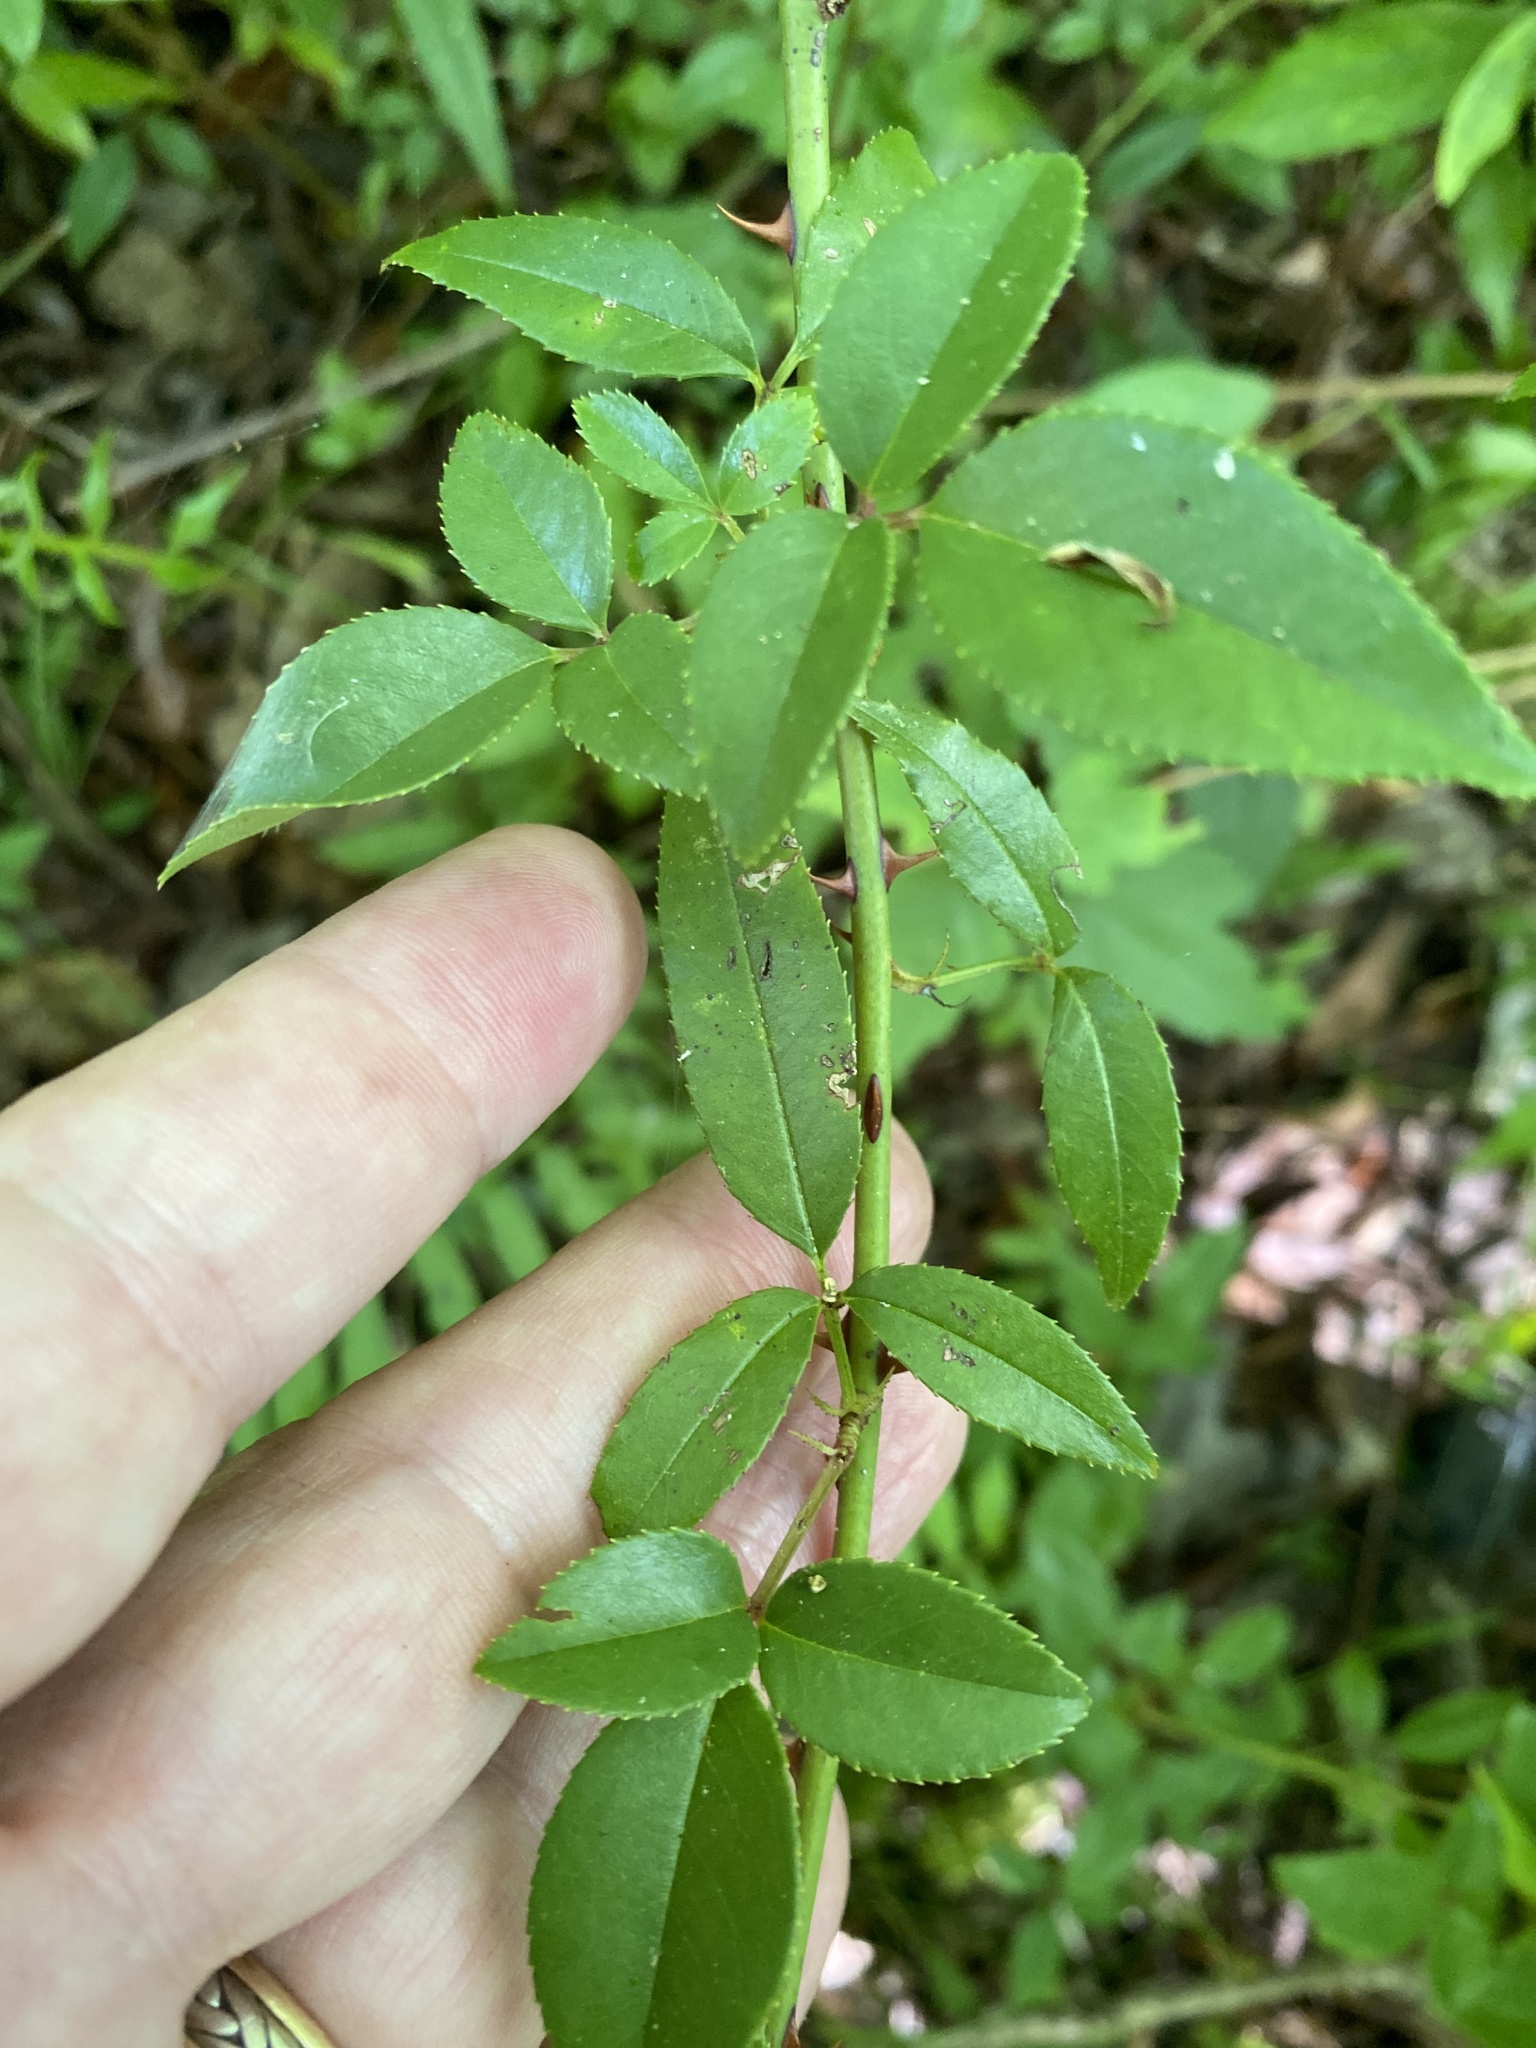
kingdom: Plantae
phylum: Tracheophyta
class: Magnoliopsida
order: Rosales
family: Rosaceae
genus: Rosa
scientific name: Rosa laevigata
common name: Cherokee rose
